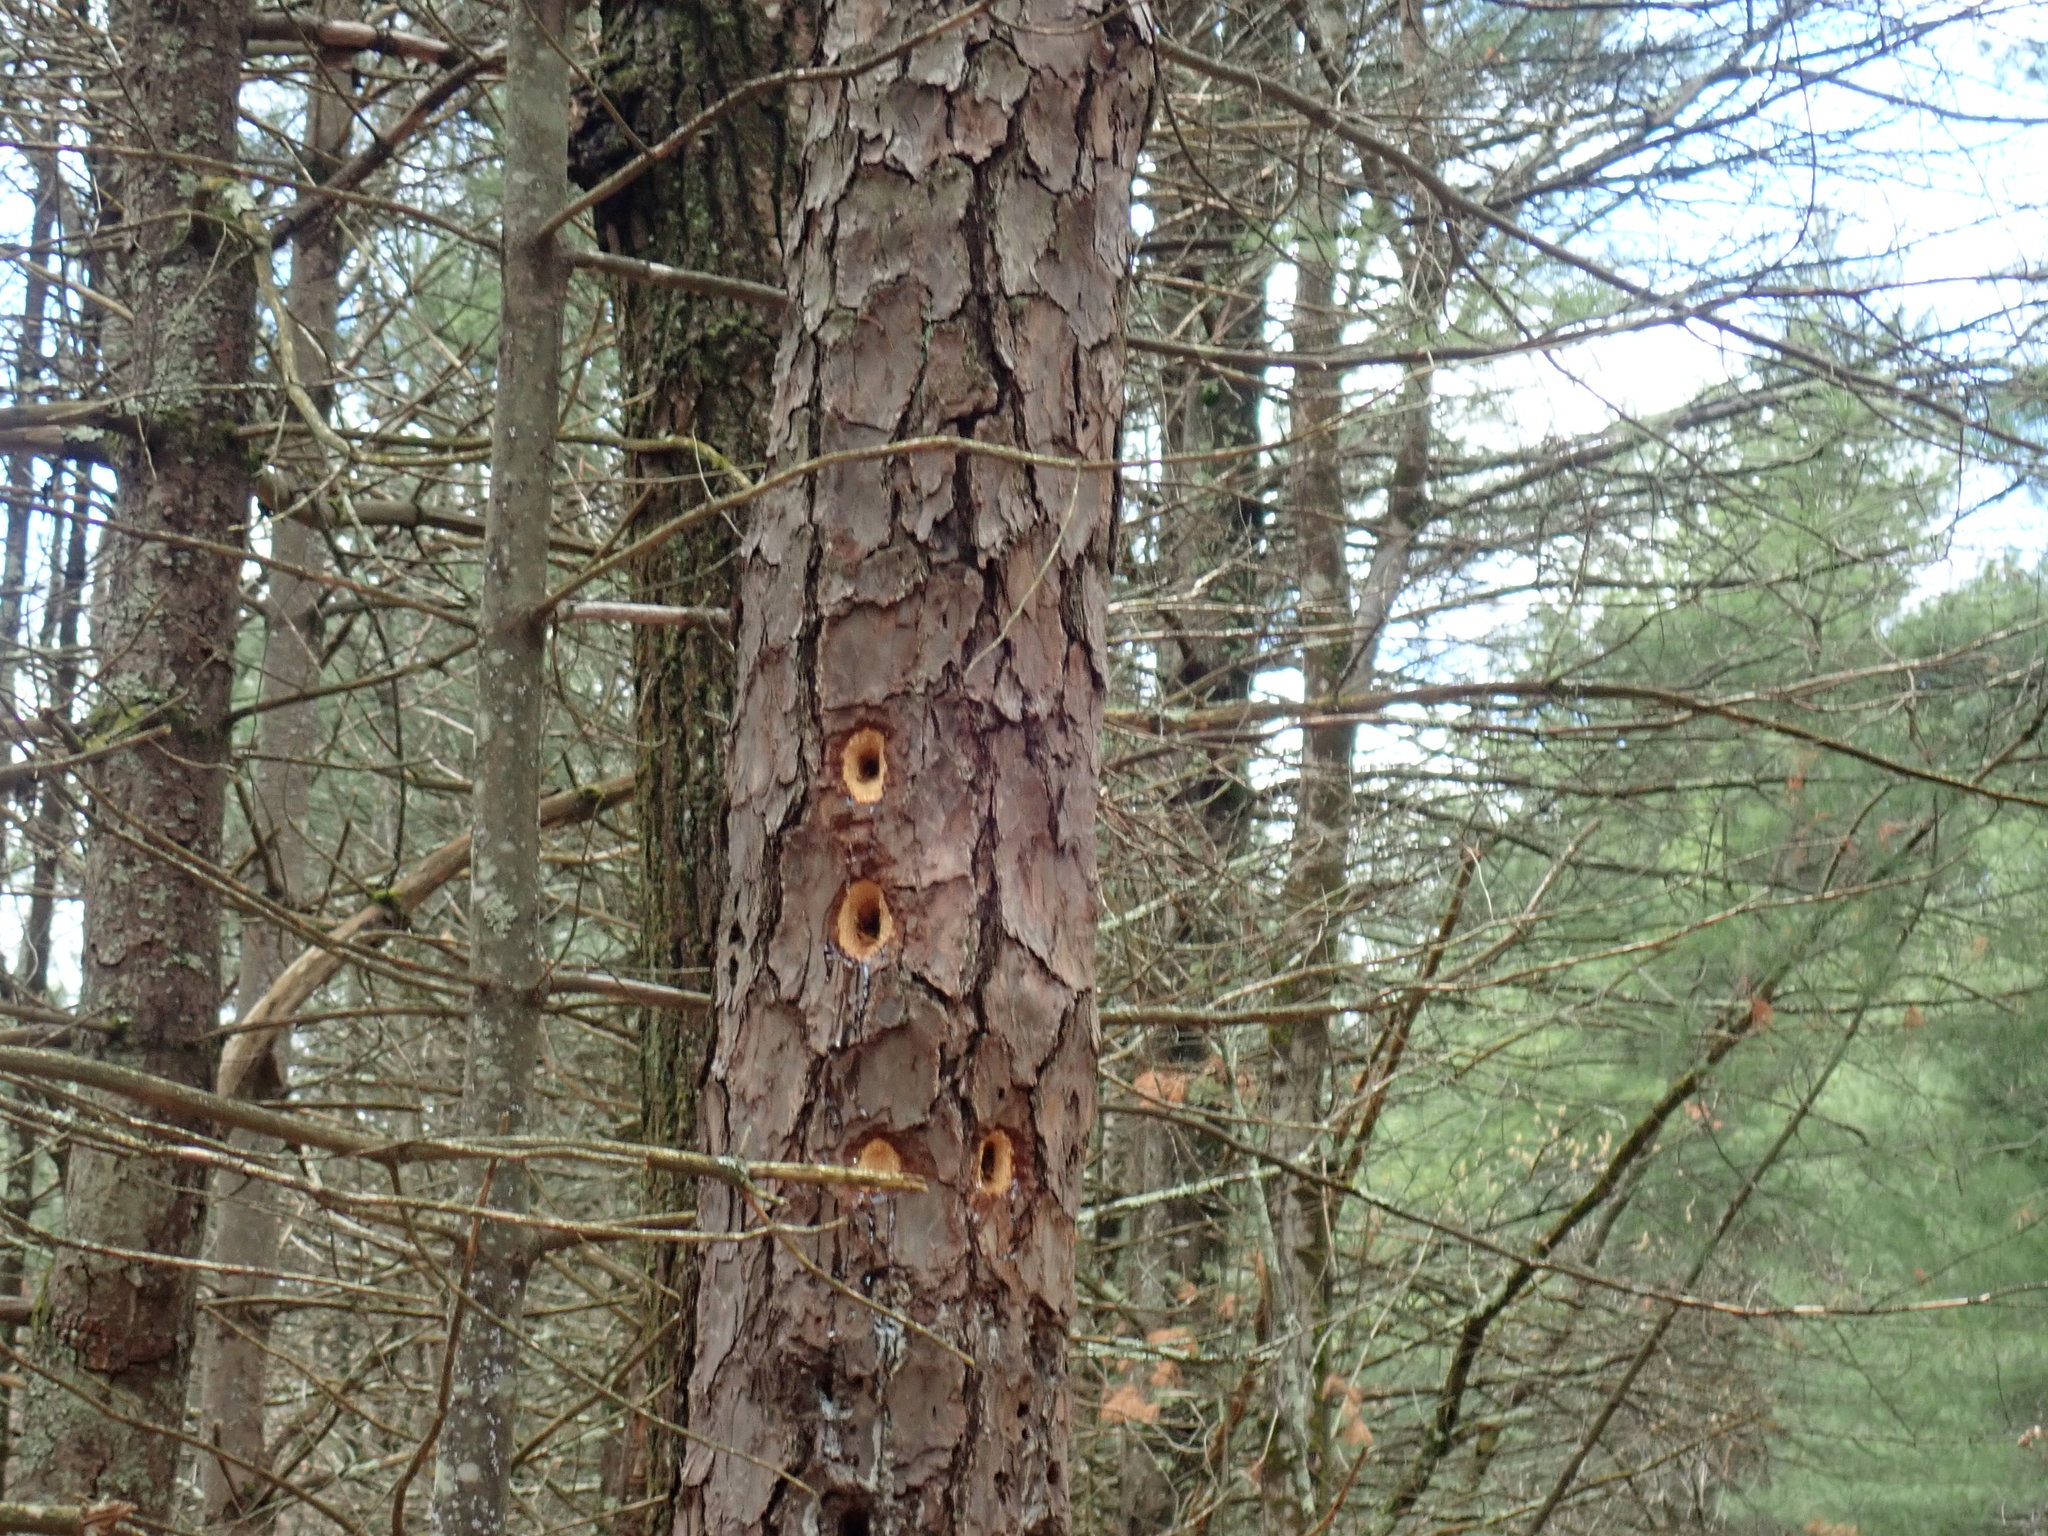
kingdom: Animalia
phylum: Chordata
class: Aves
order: Piciformes
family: Picidae
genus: Dryocopus
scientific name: Dryocopus pileatus
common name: Pileated woodpecker
